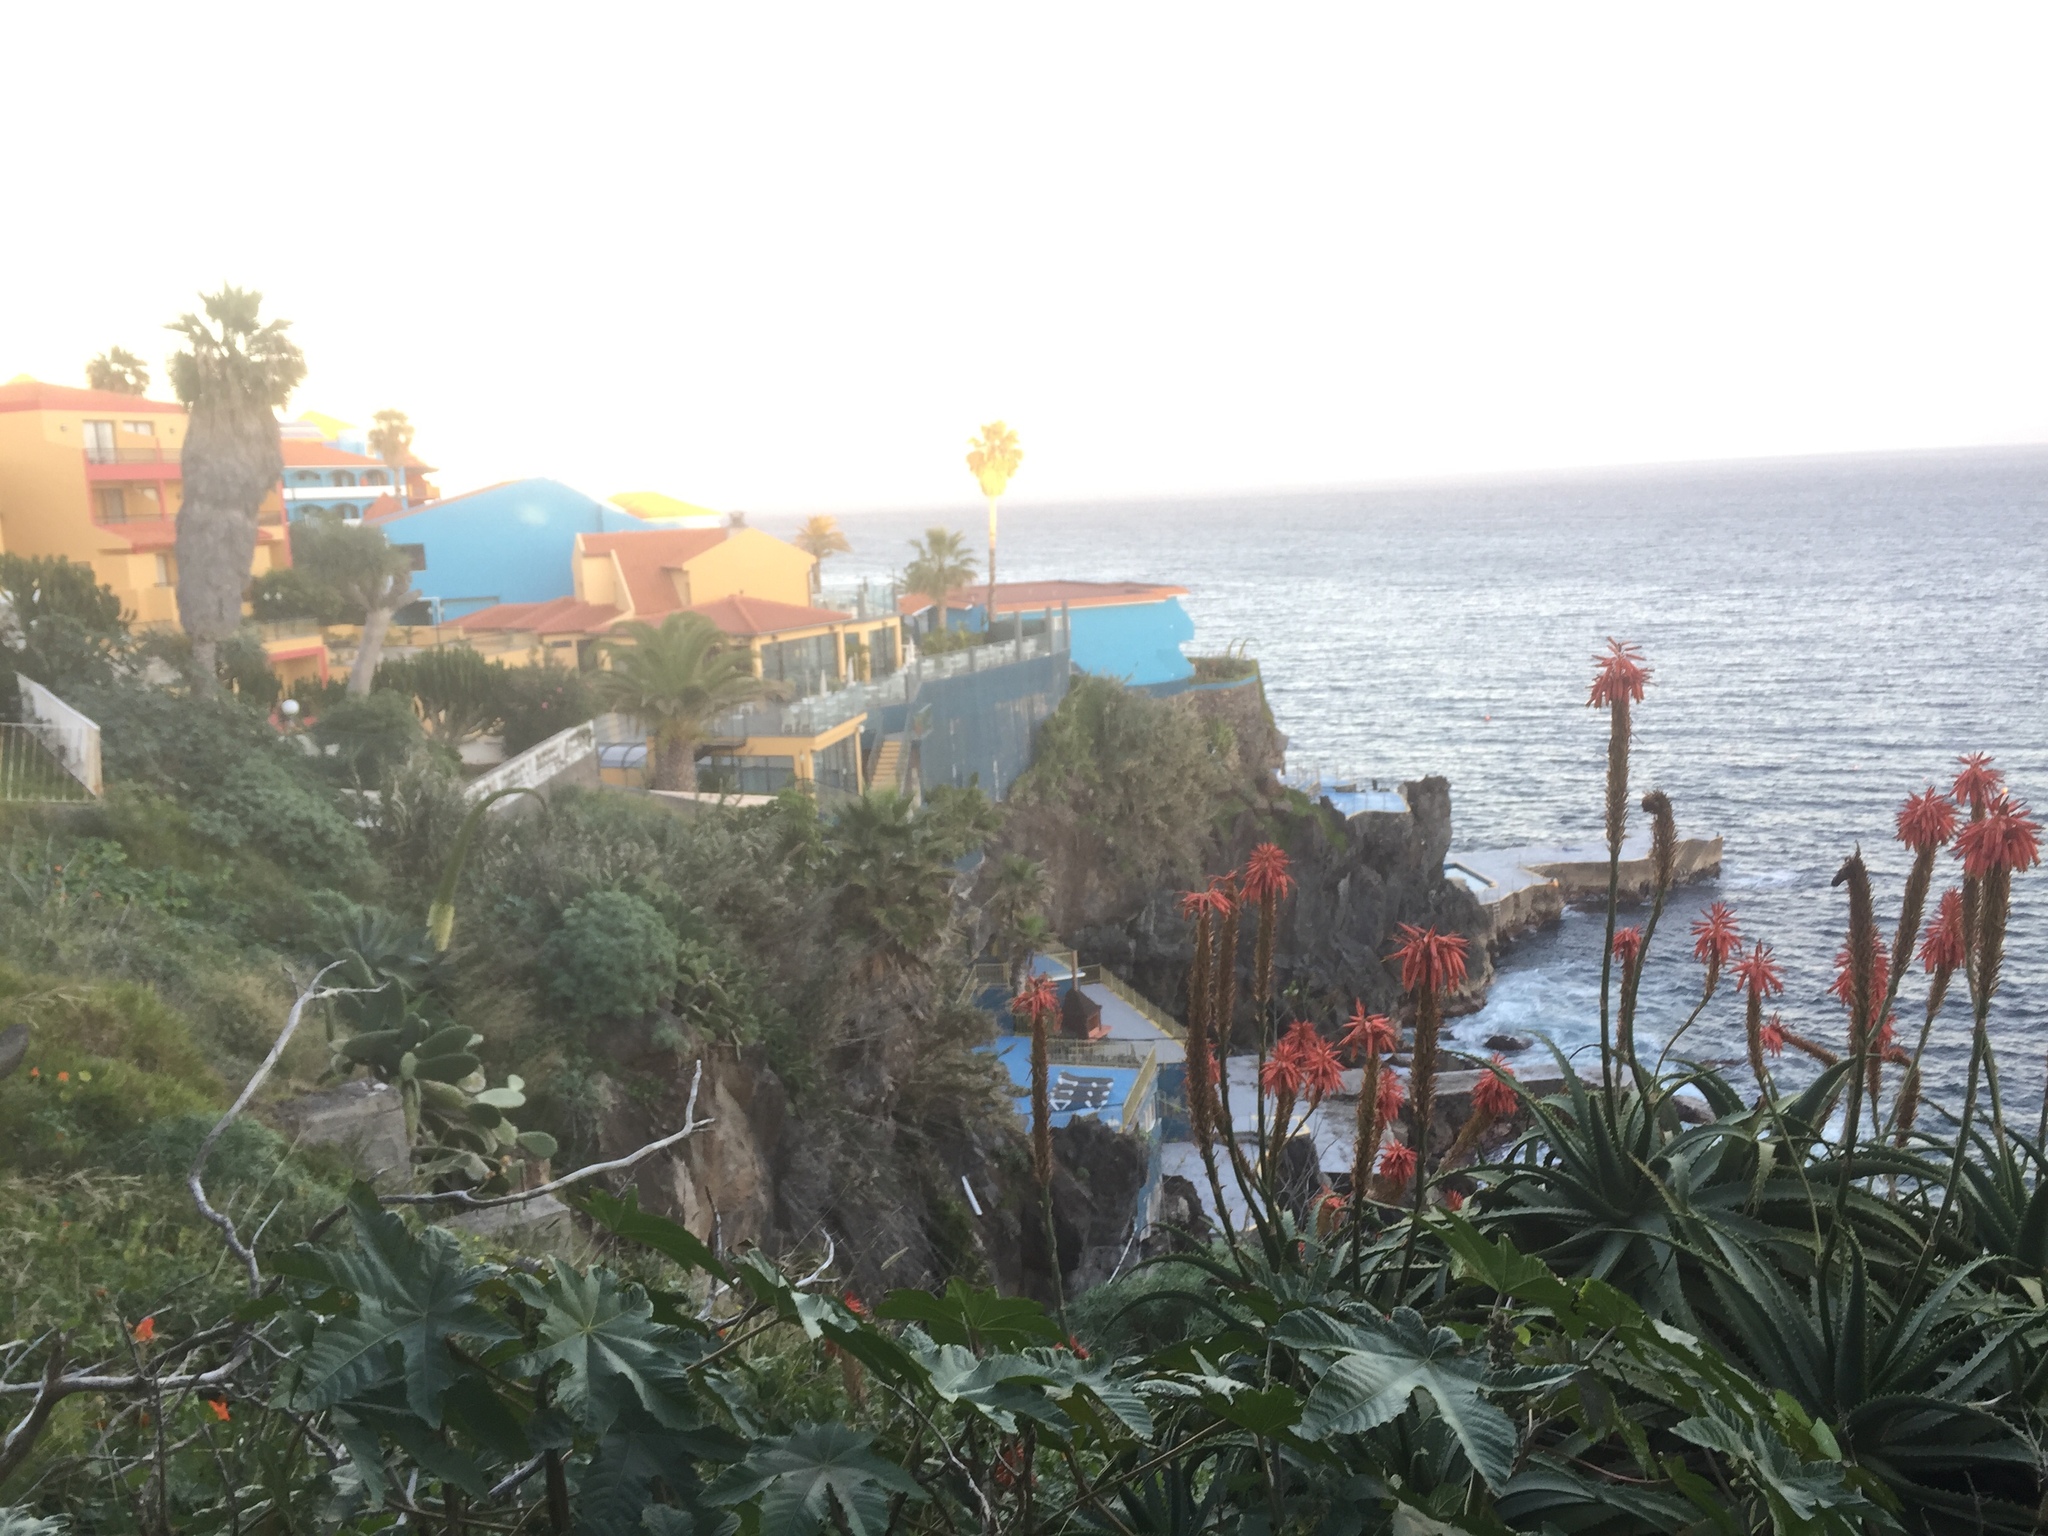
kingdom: Plantae
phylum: Tracheophyta
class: Liliopsida
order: Asparagales
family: Asphodelaceae
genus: Aloe
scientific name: Aloe arborescens
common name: Candelabra aloe
